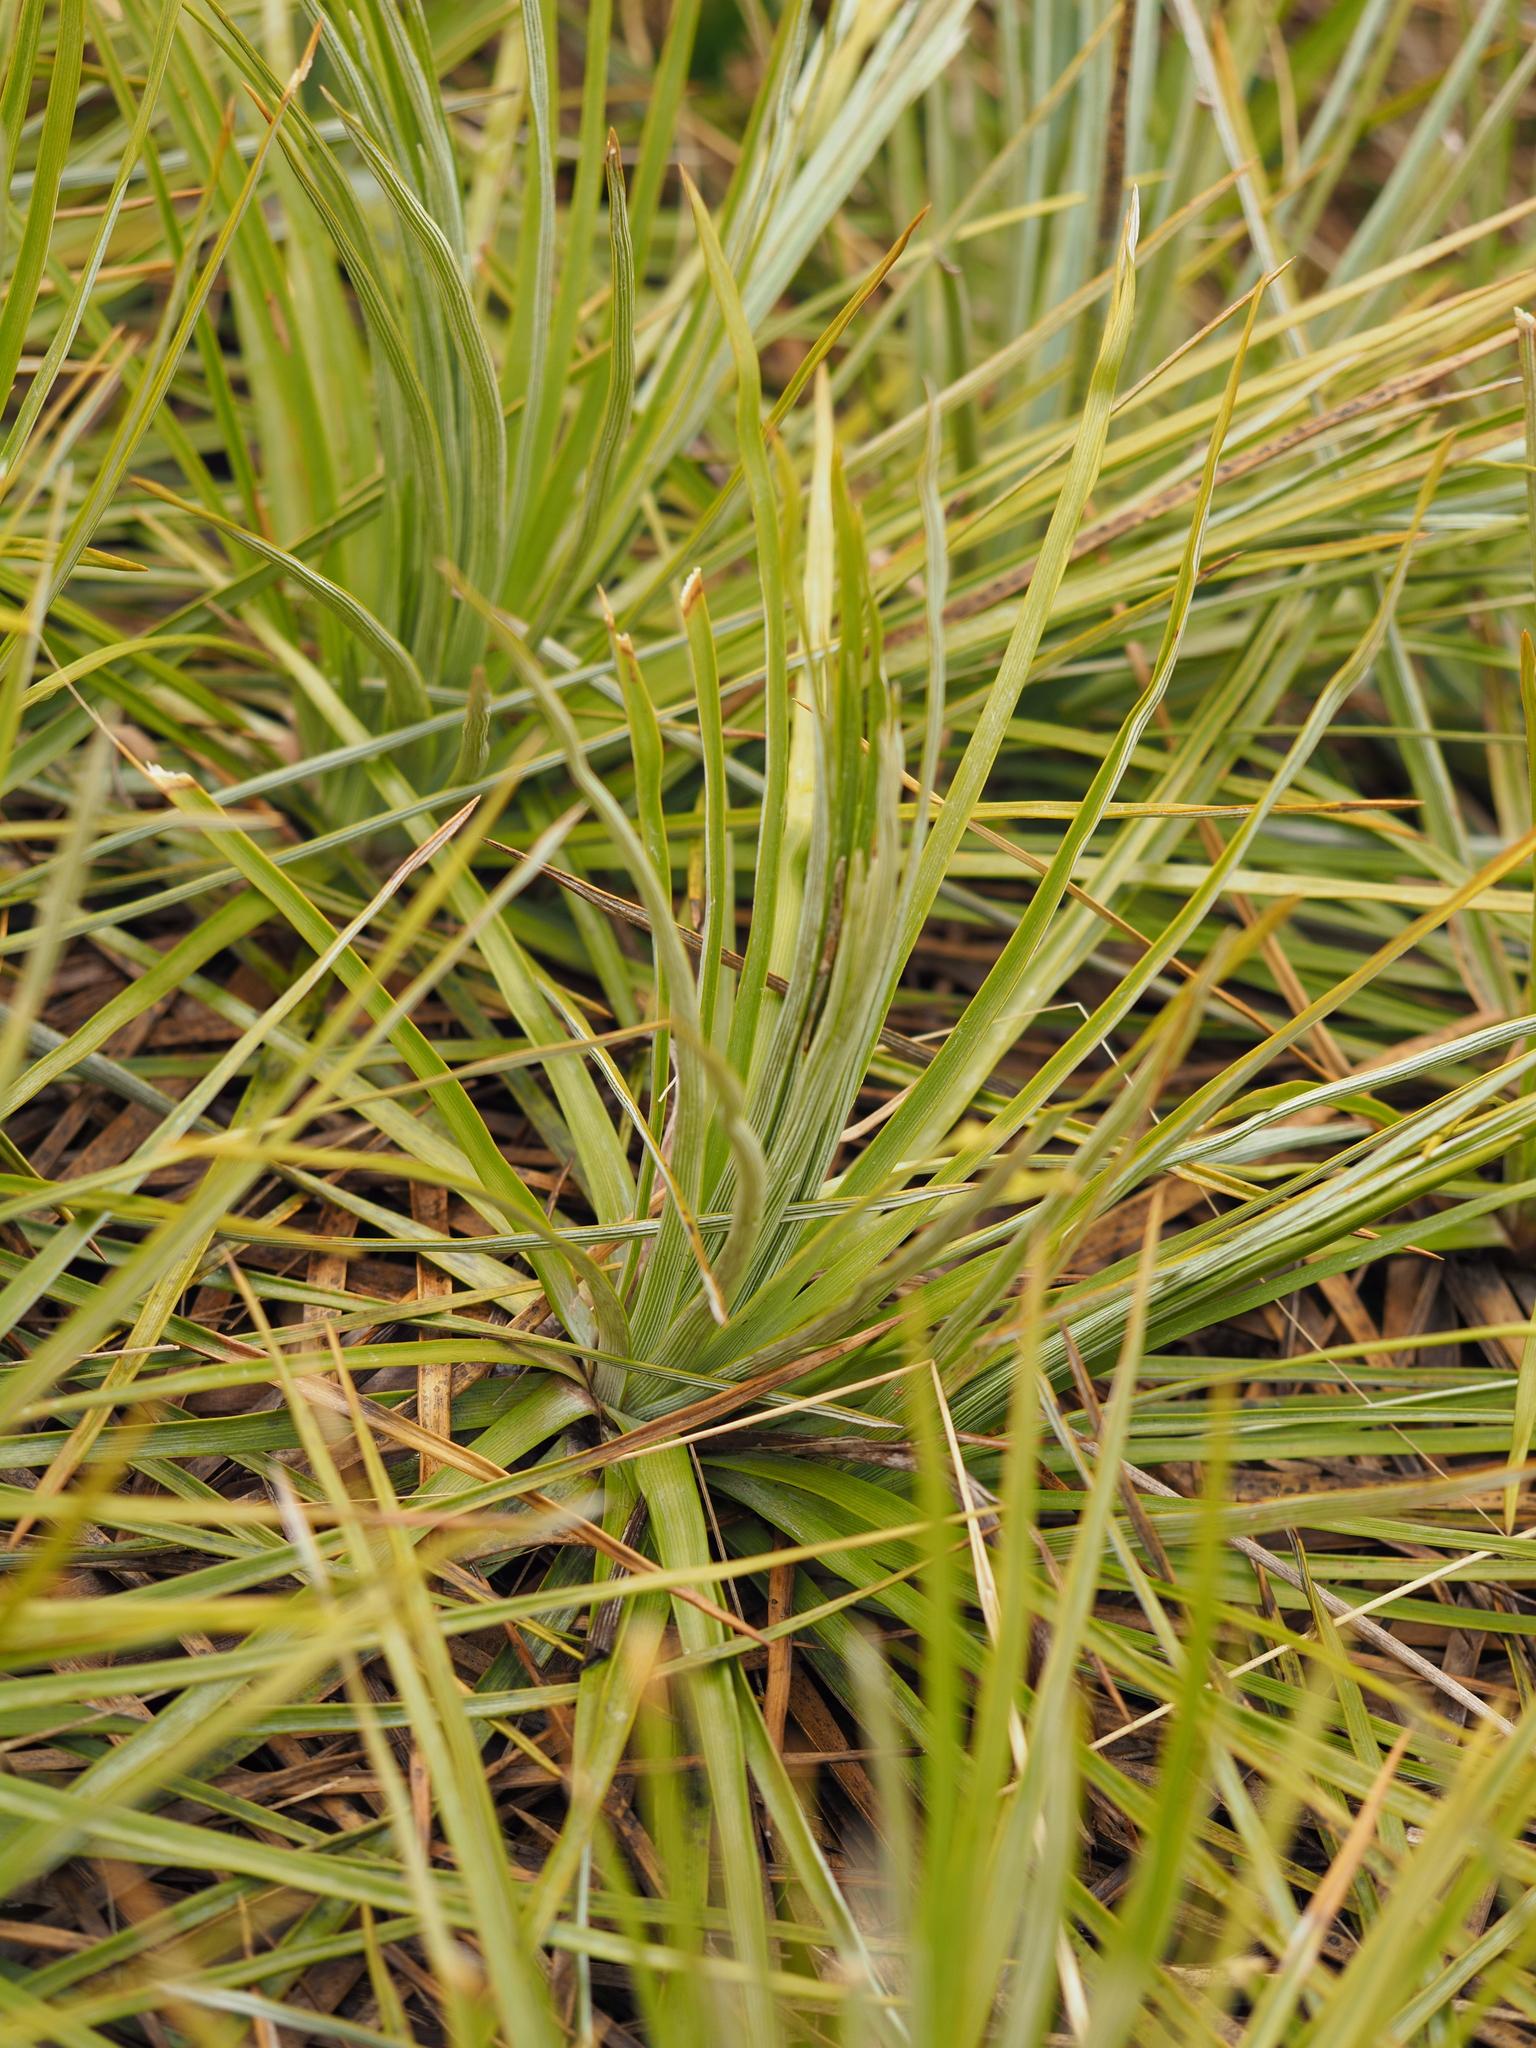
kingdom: Plantae
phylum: Tracheophyta
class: Magnoliopsida
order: Asterales
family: Asteraceae
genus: Celmisia
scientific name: Celmisia lyallii
